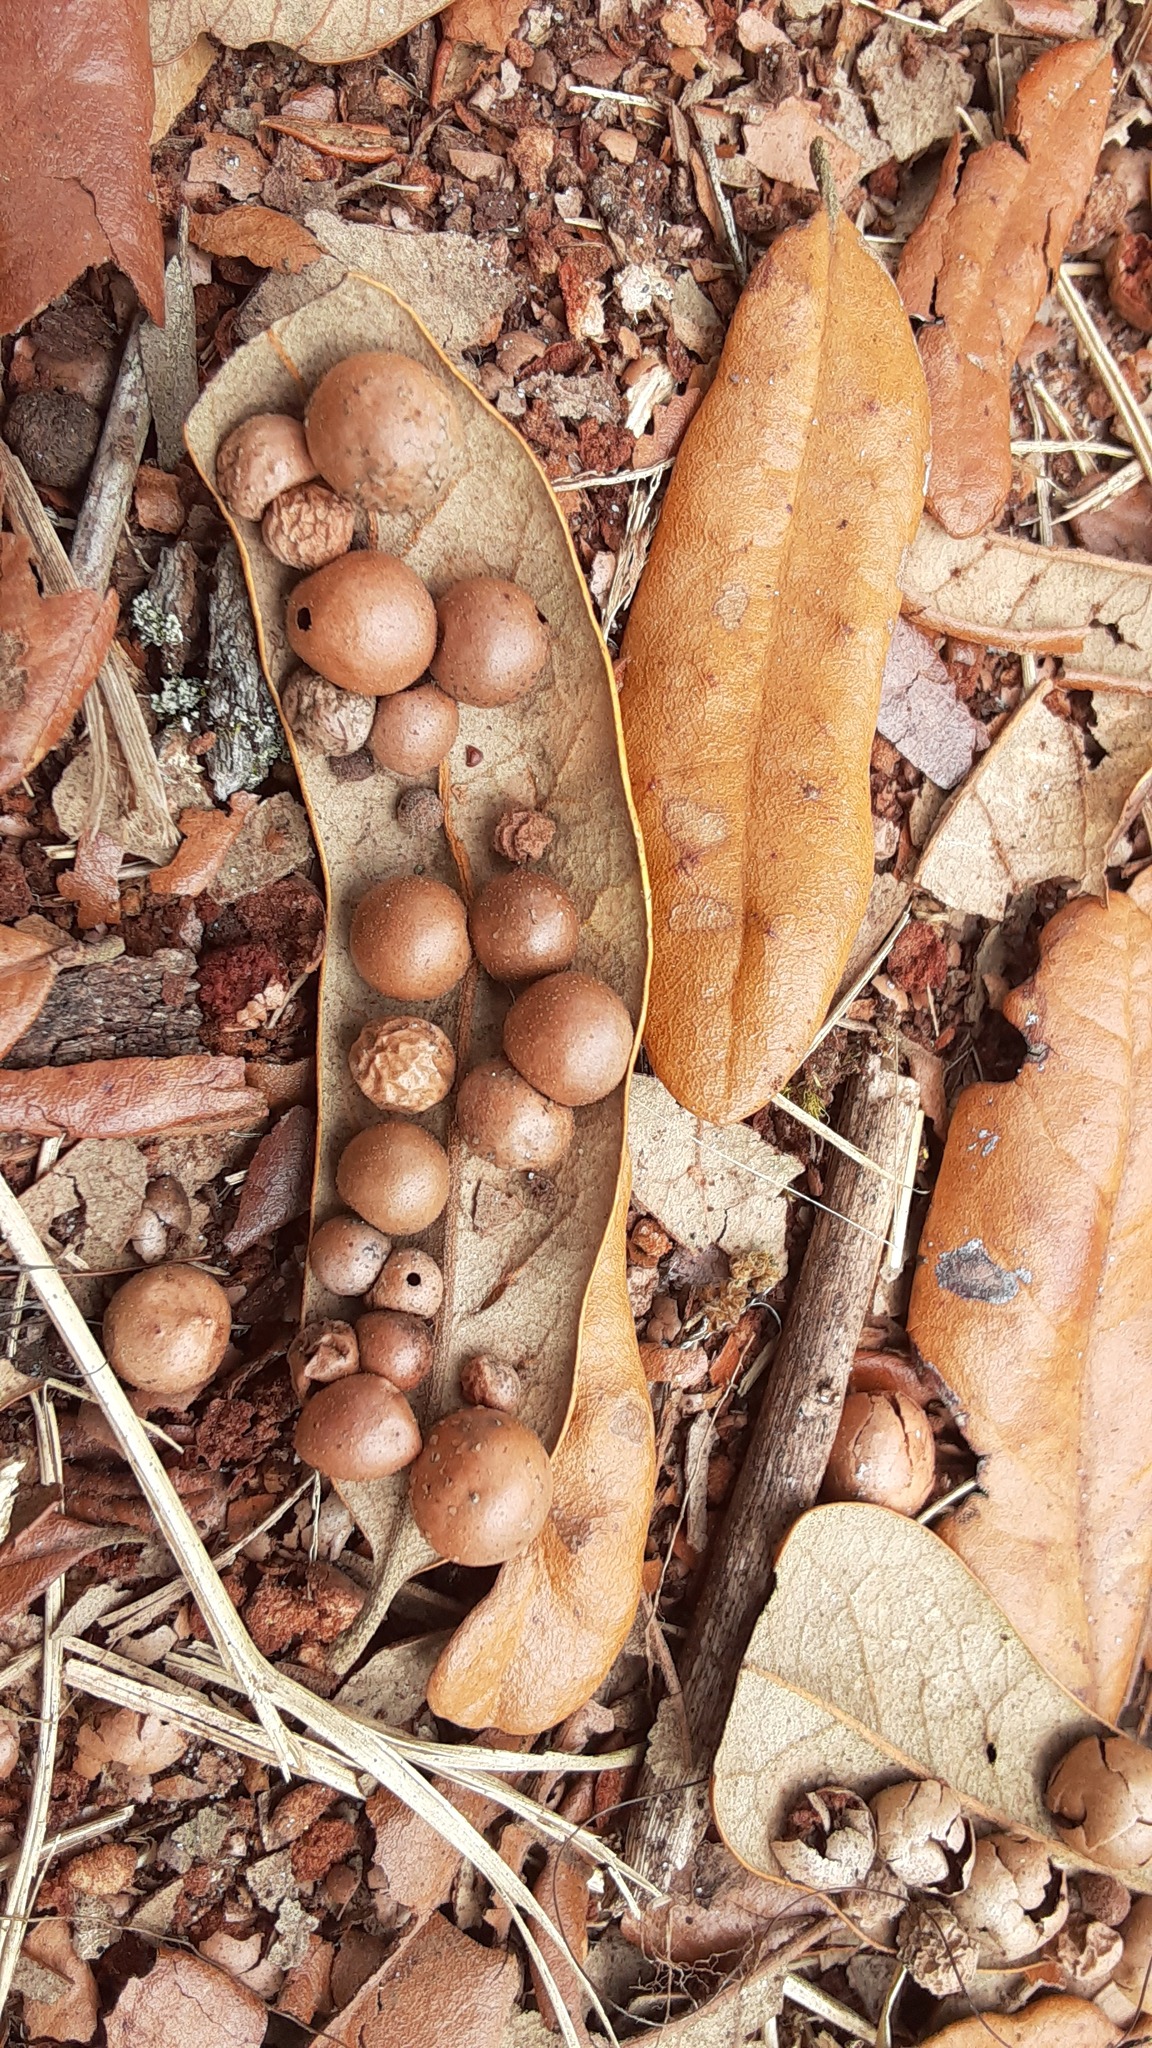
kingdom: Animalia
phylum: Arthropoda
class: Insecta
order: Hymenoptera
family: Cynipidae
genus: Belonocnema
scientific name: Belonocnema treatae
